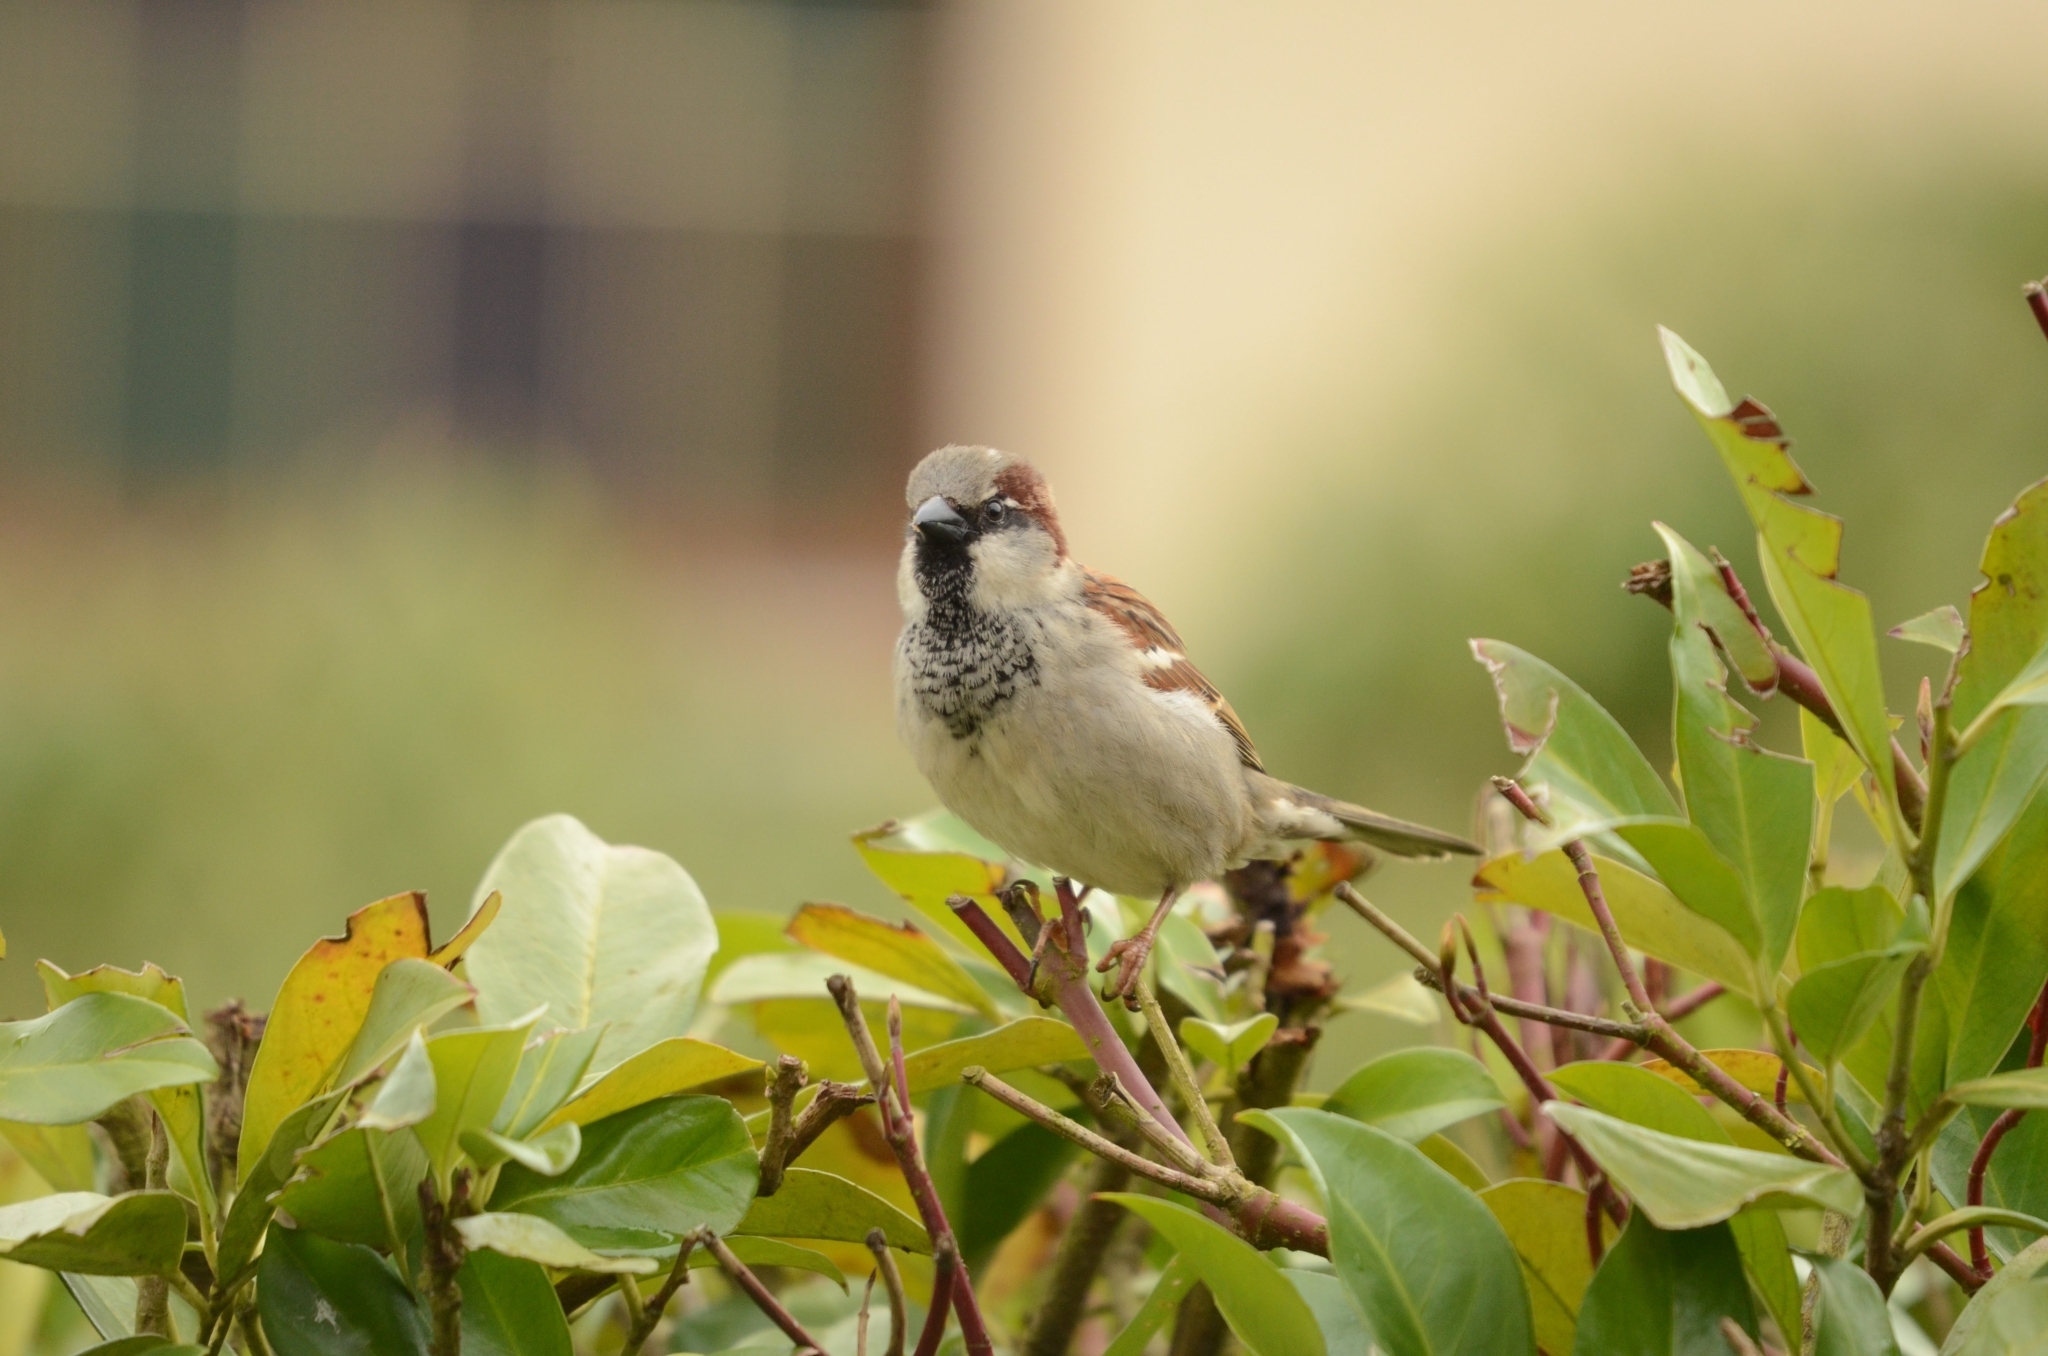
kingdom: Animalia
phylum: Chordata
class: Aves
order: Passeriformes
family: Passeridae
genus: Passer
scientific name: Passer domesticus
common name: House sparrow
